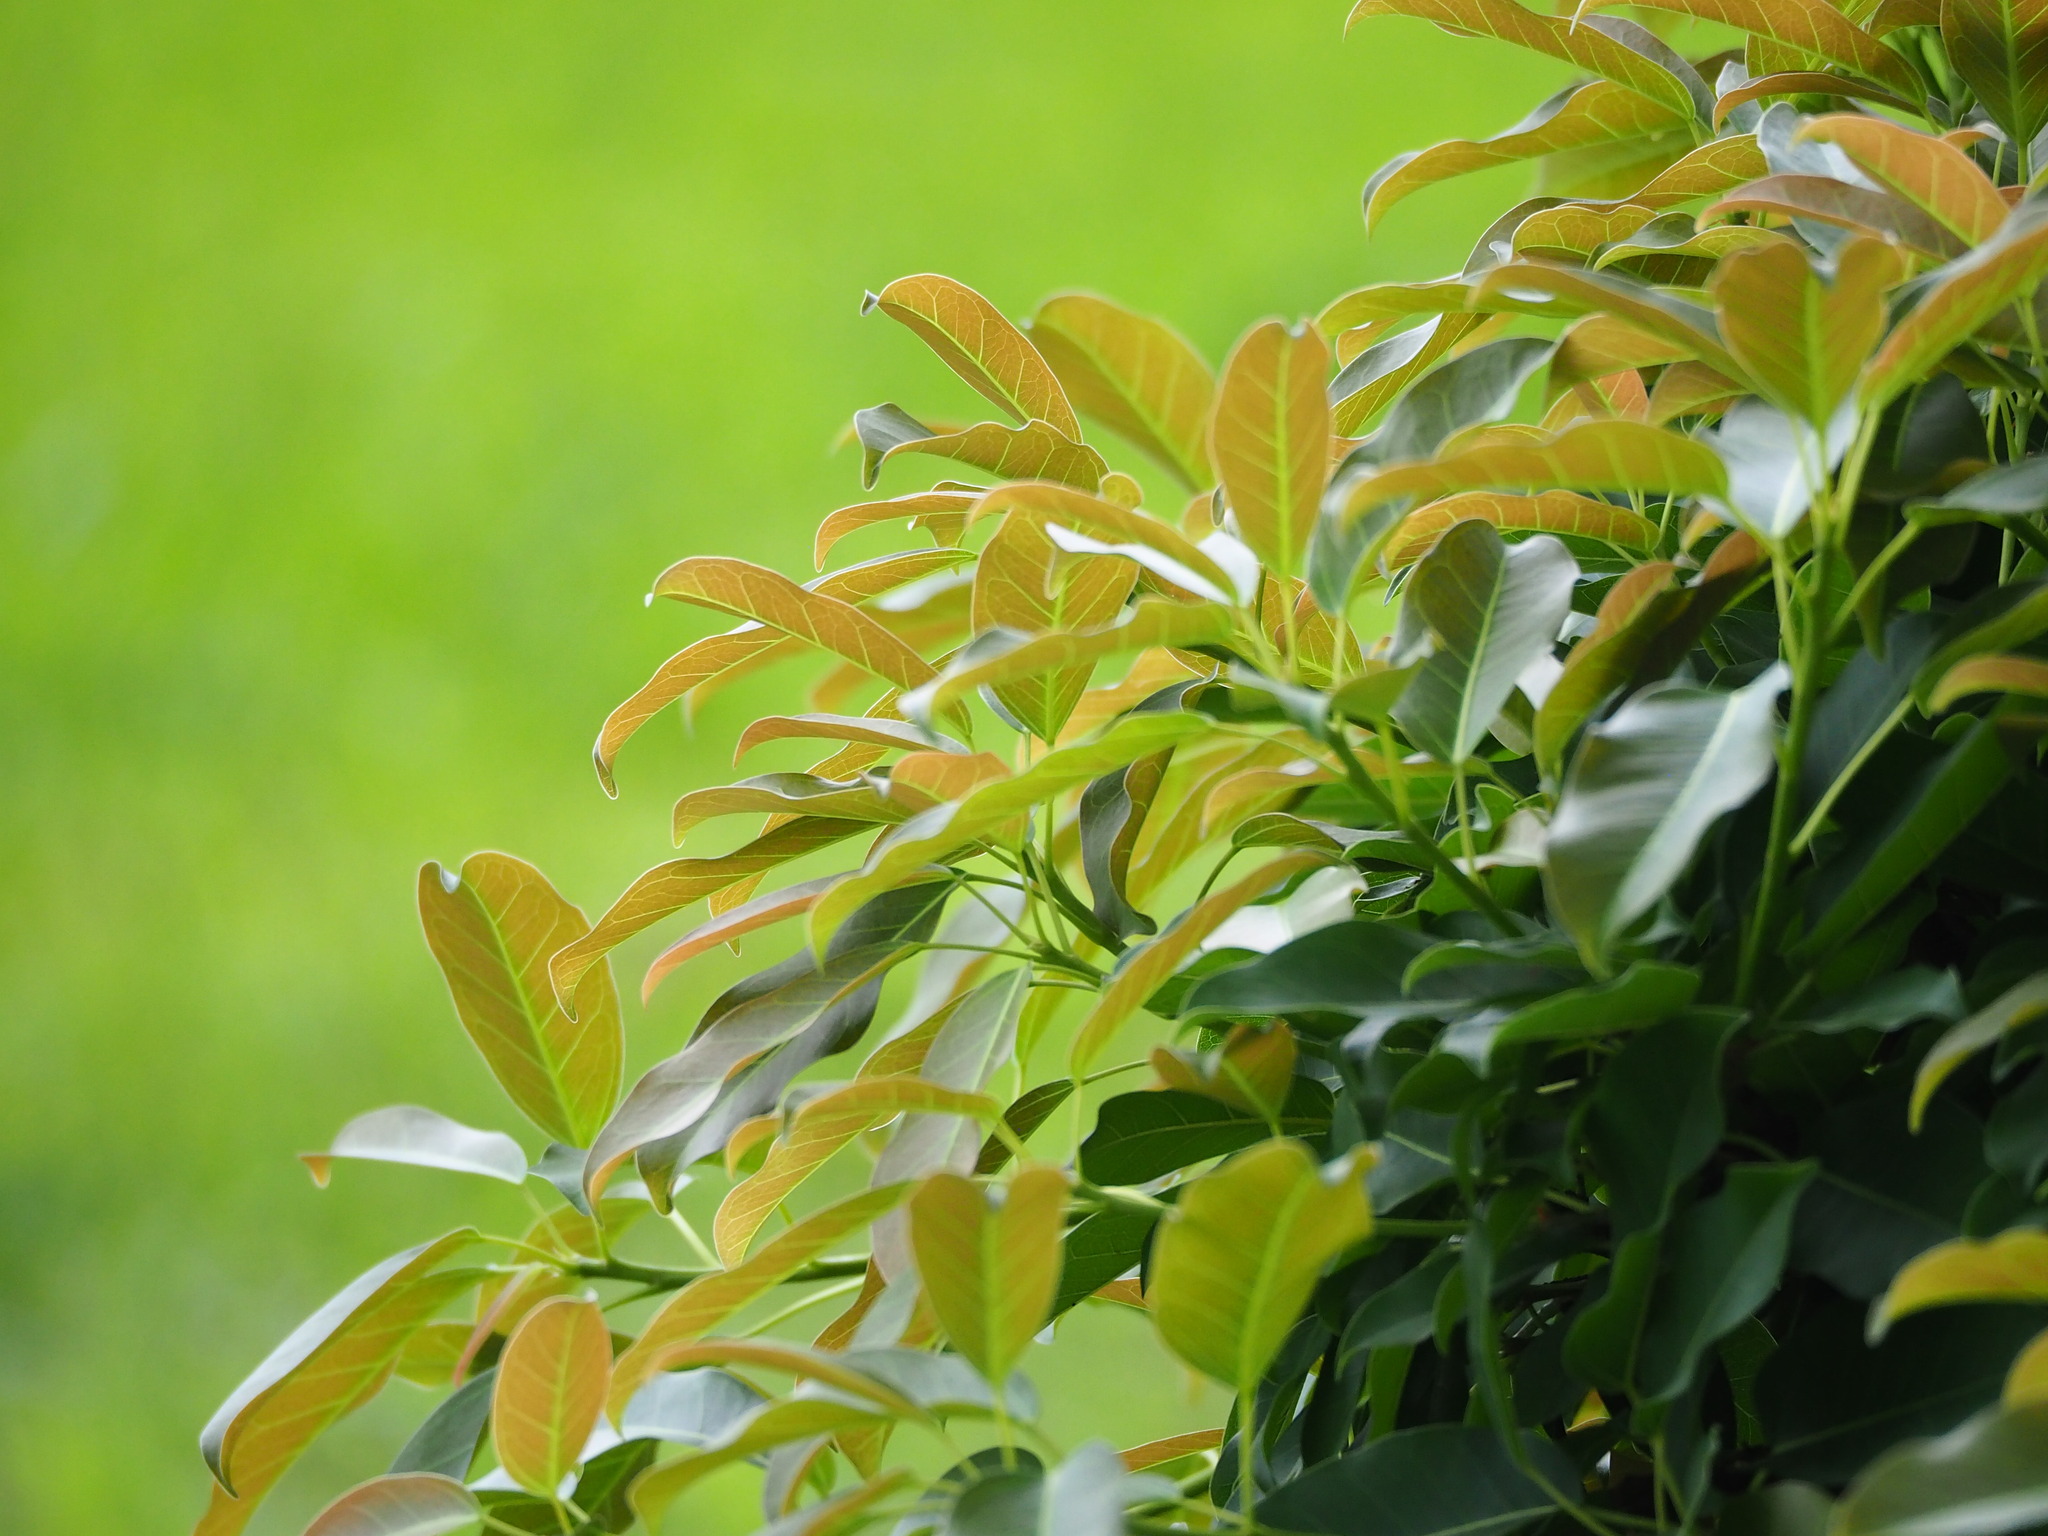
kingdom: Plantae
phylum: Tracheophyta
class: Magnoliopsida
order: Rosales
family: Moraceae
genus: Ficus
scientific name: Ficus subpisocarpa
